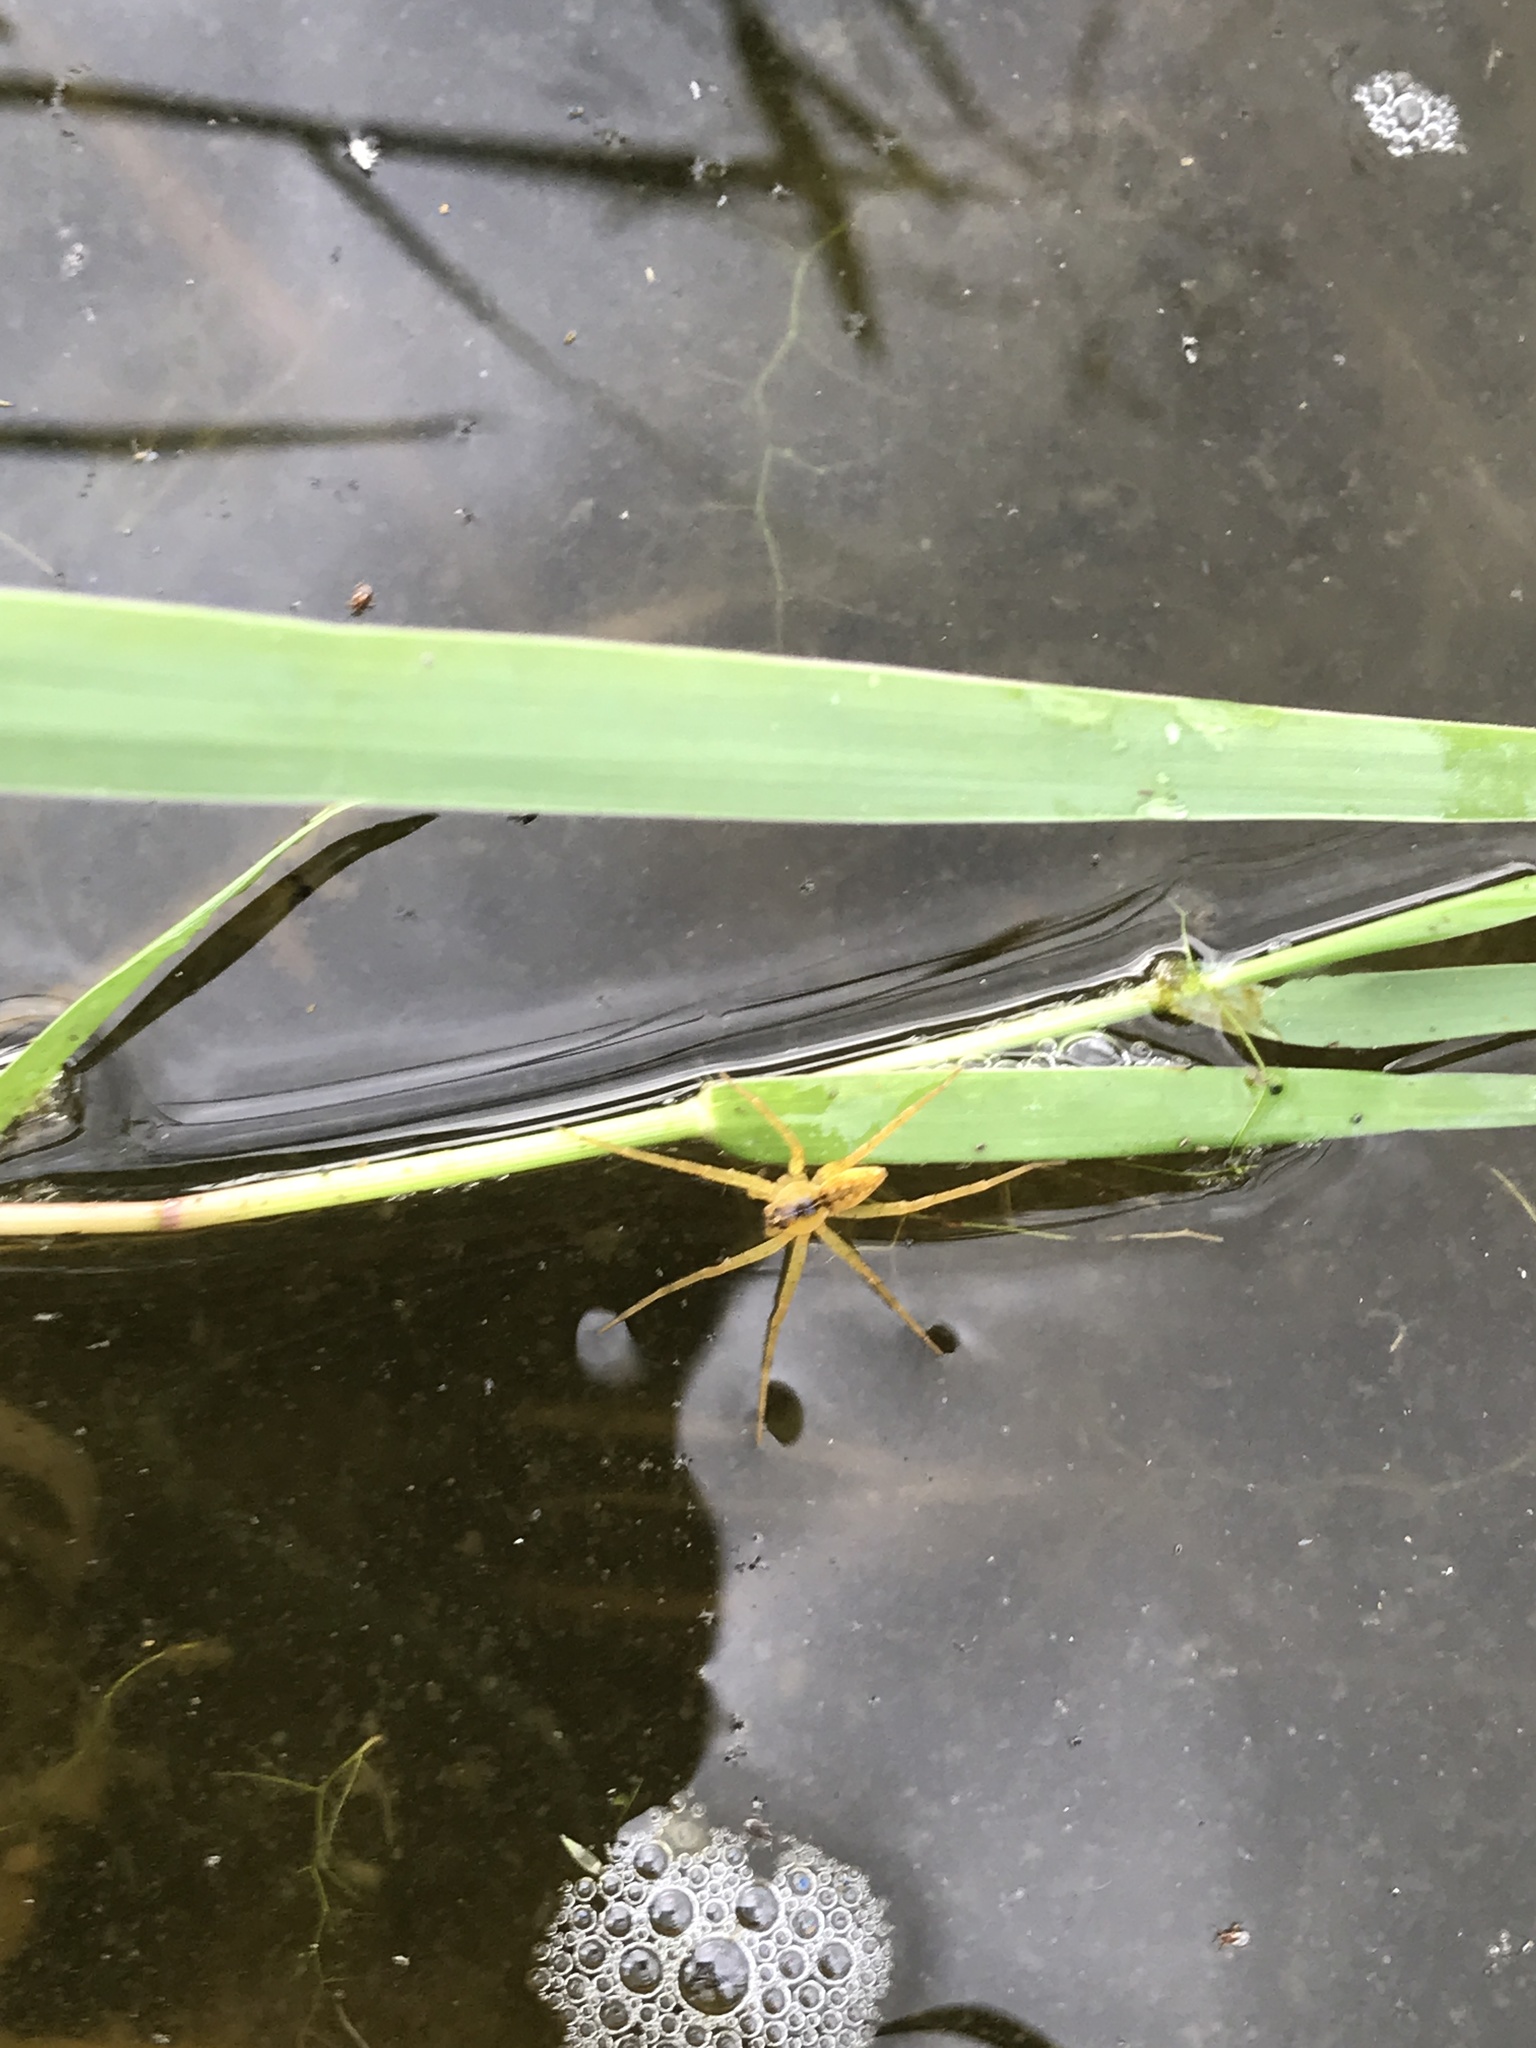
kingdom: Animalia
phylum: Arthropoda
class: Arachnida
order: Araneae
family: Pisauridae
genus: Dolomedes
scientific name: Dolomedes triton
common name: Six-spotted fishing spider
